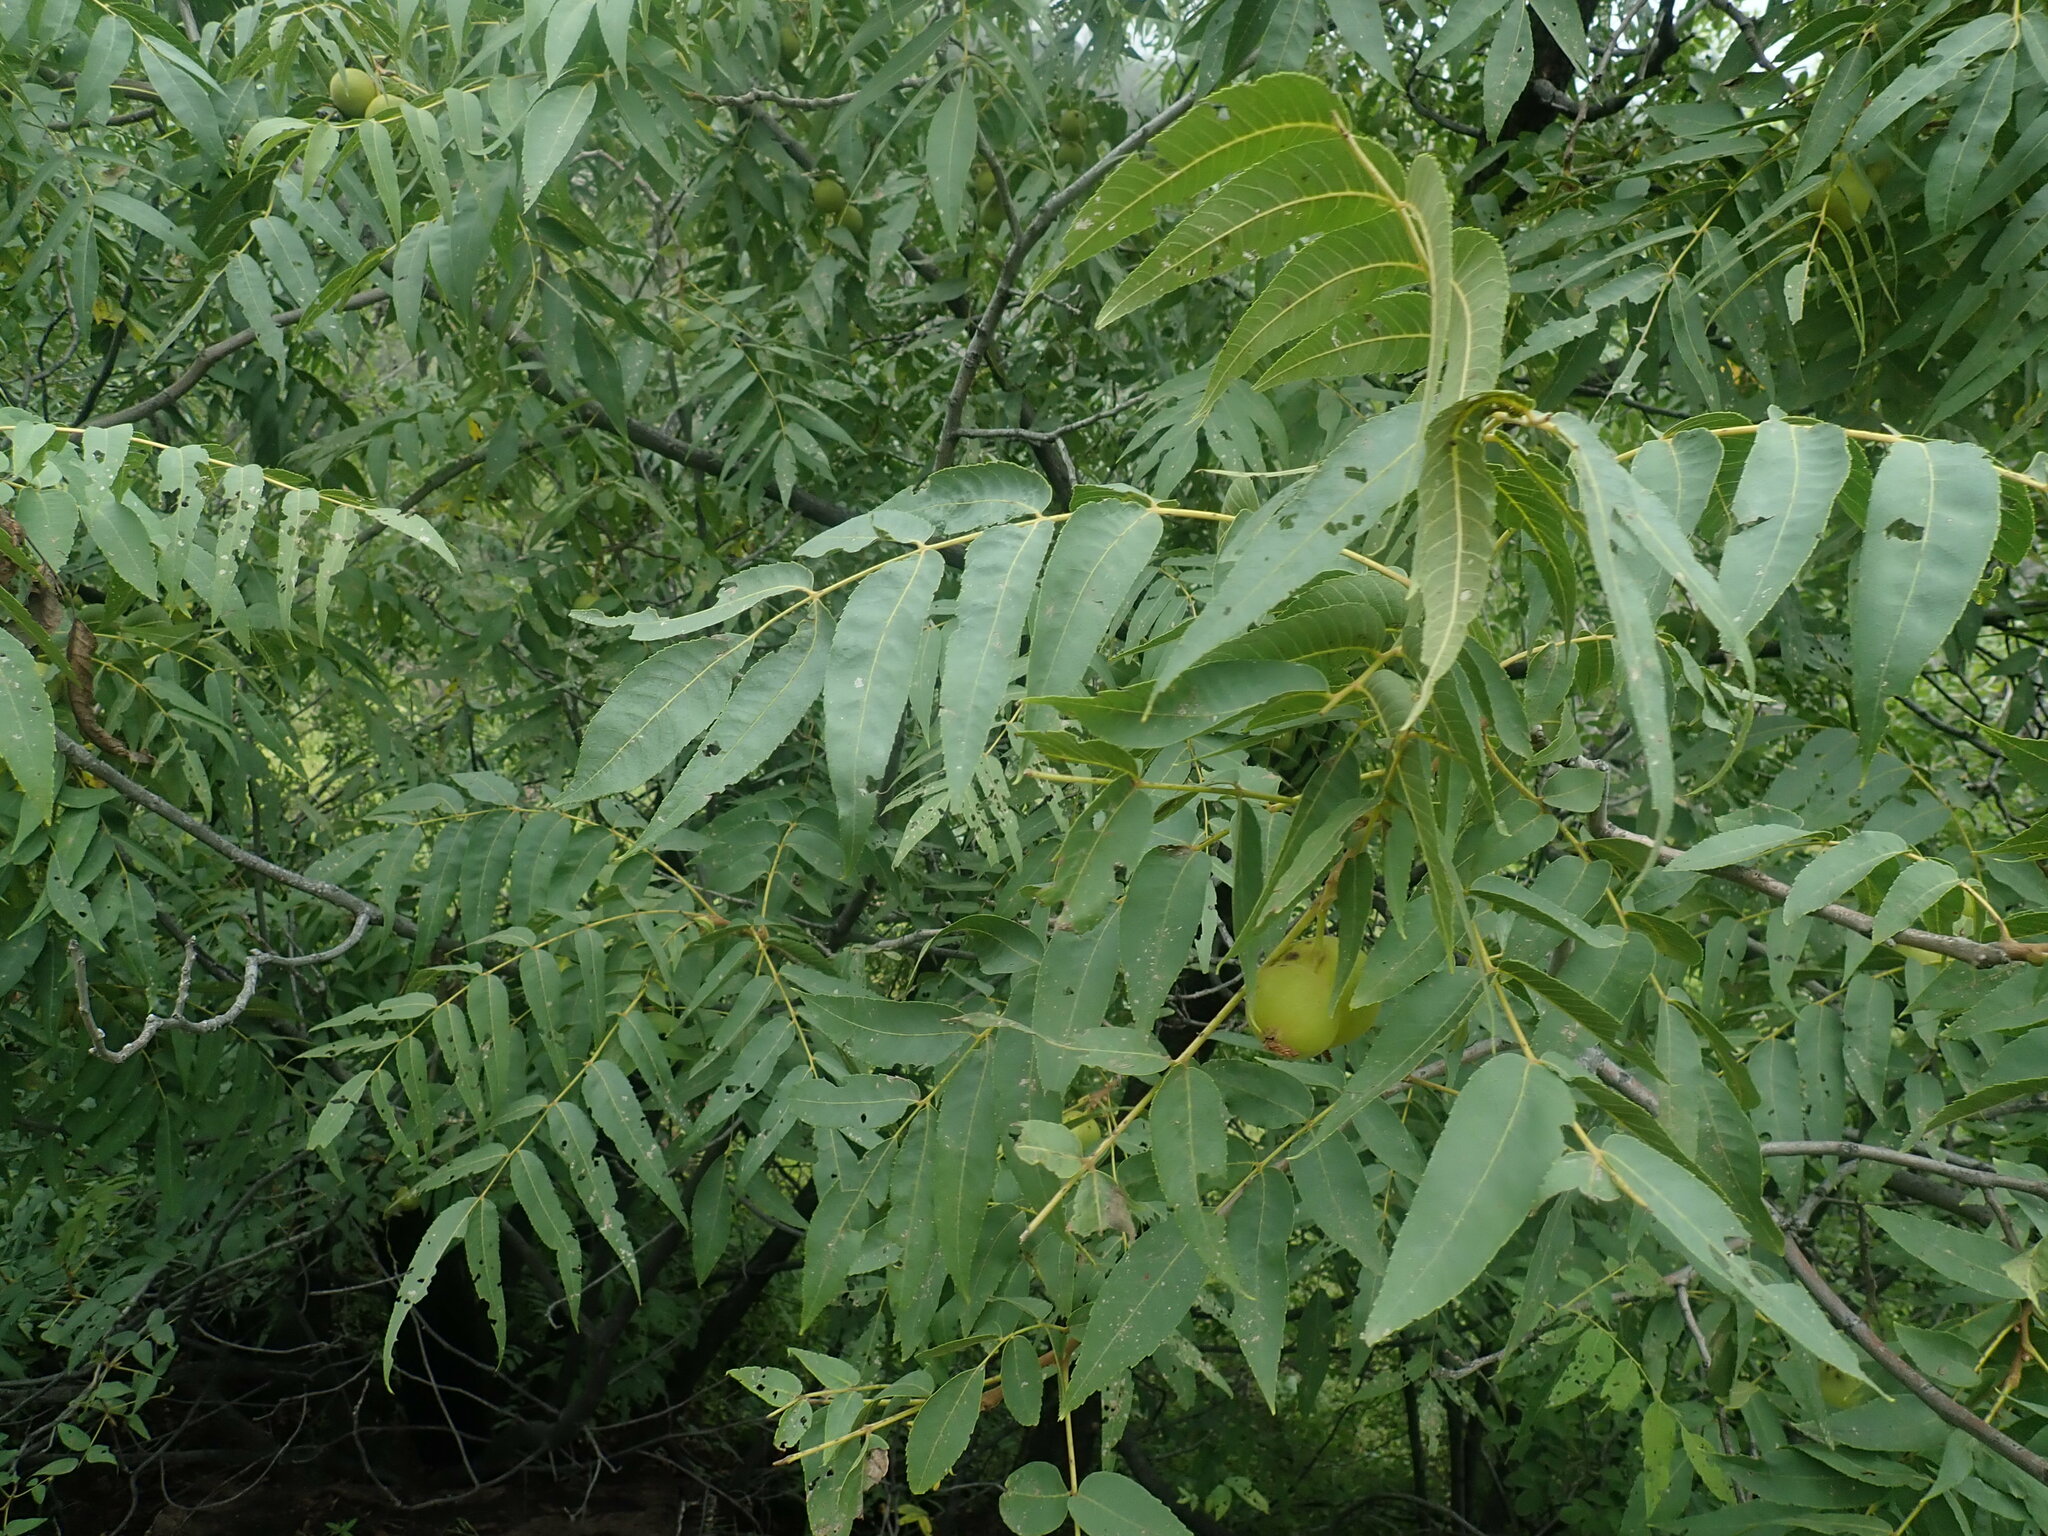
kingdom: Plantae
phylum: Tracheophyta
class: Magnoliopsida
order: Fagales
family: Juglandaceae
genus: Juglans
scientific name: Juglans major
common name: Arizona walnut
